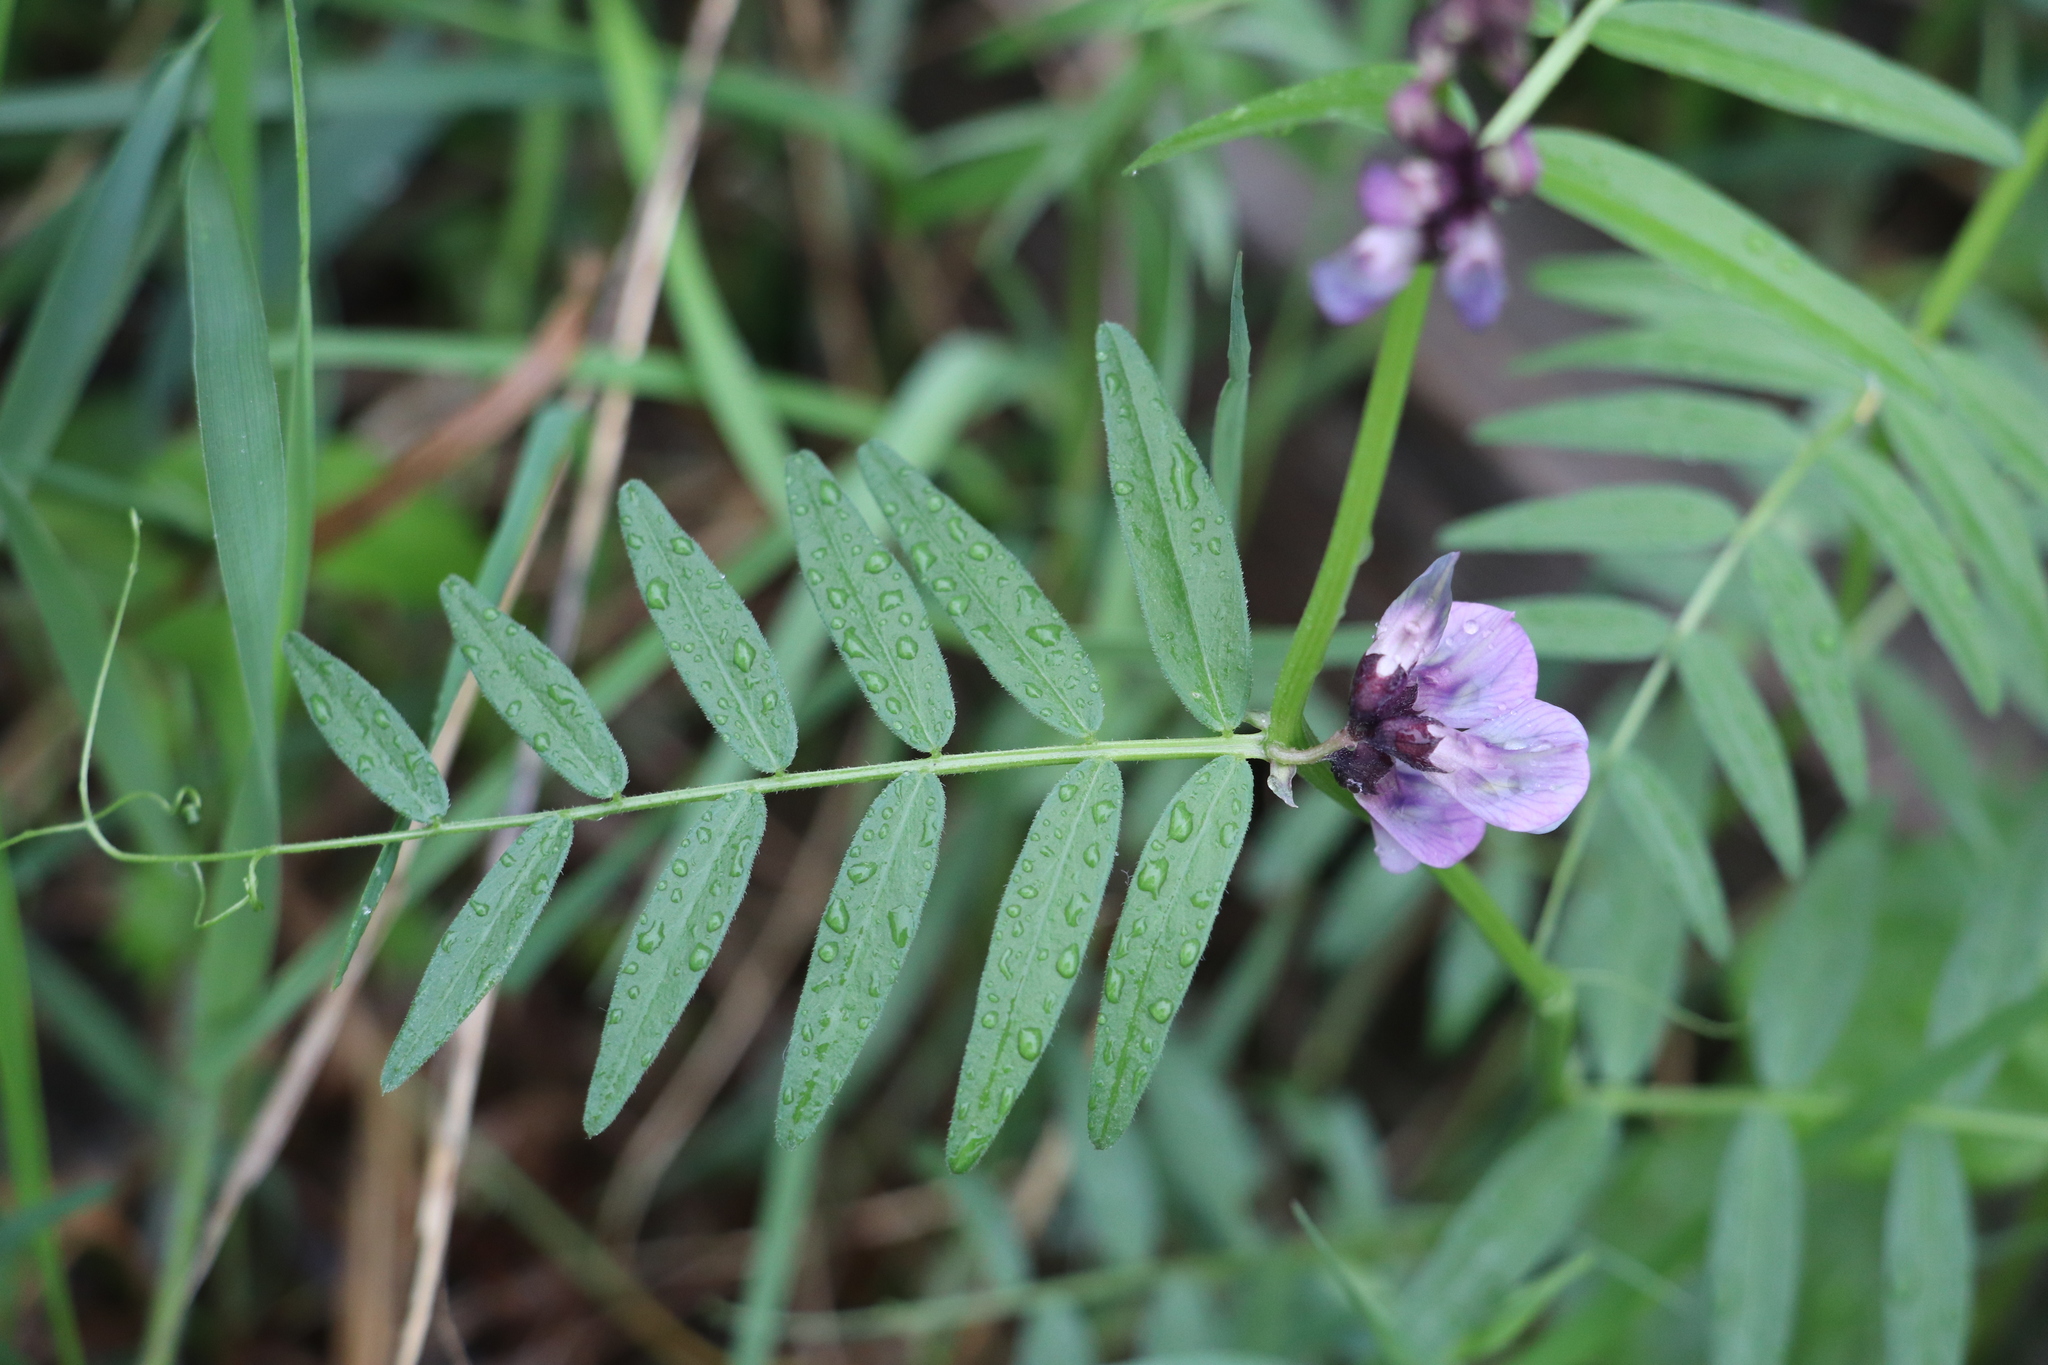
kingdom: Plantae
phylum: Tracheophyta
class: Magnoliopsida
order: Fabales
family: Fabaceae
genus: Vicia
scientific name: Vicia sepium
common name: Bush vetch
